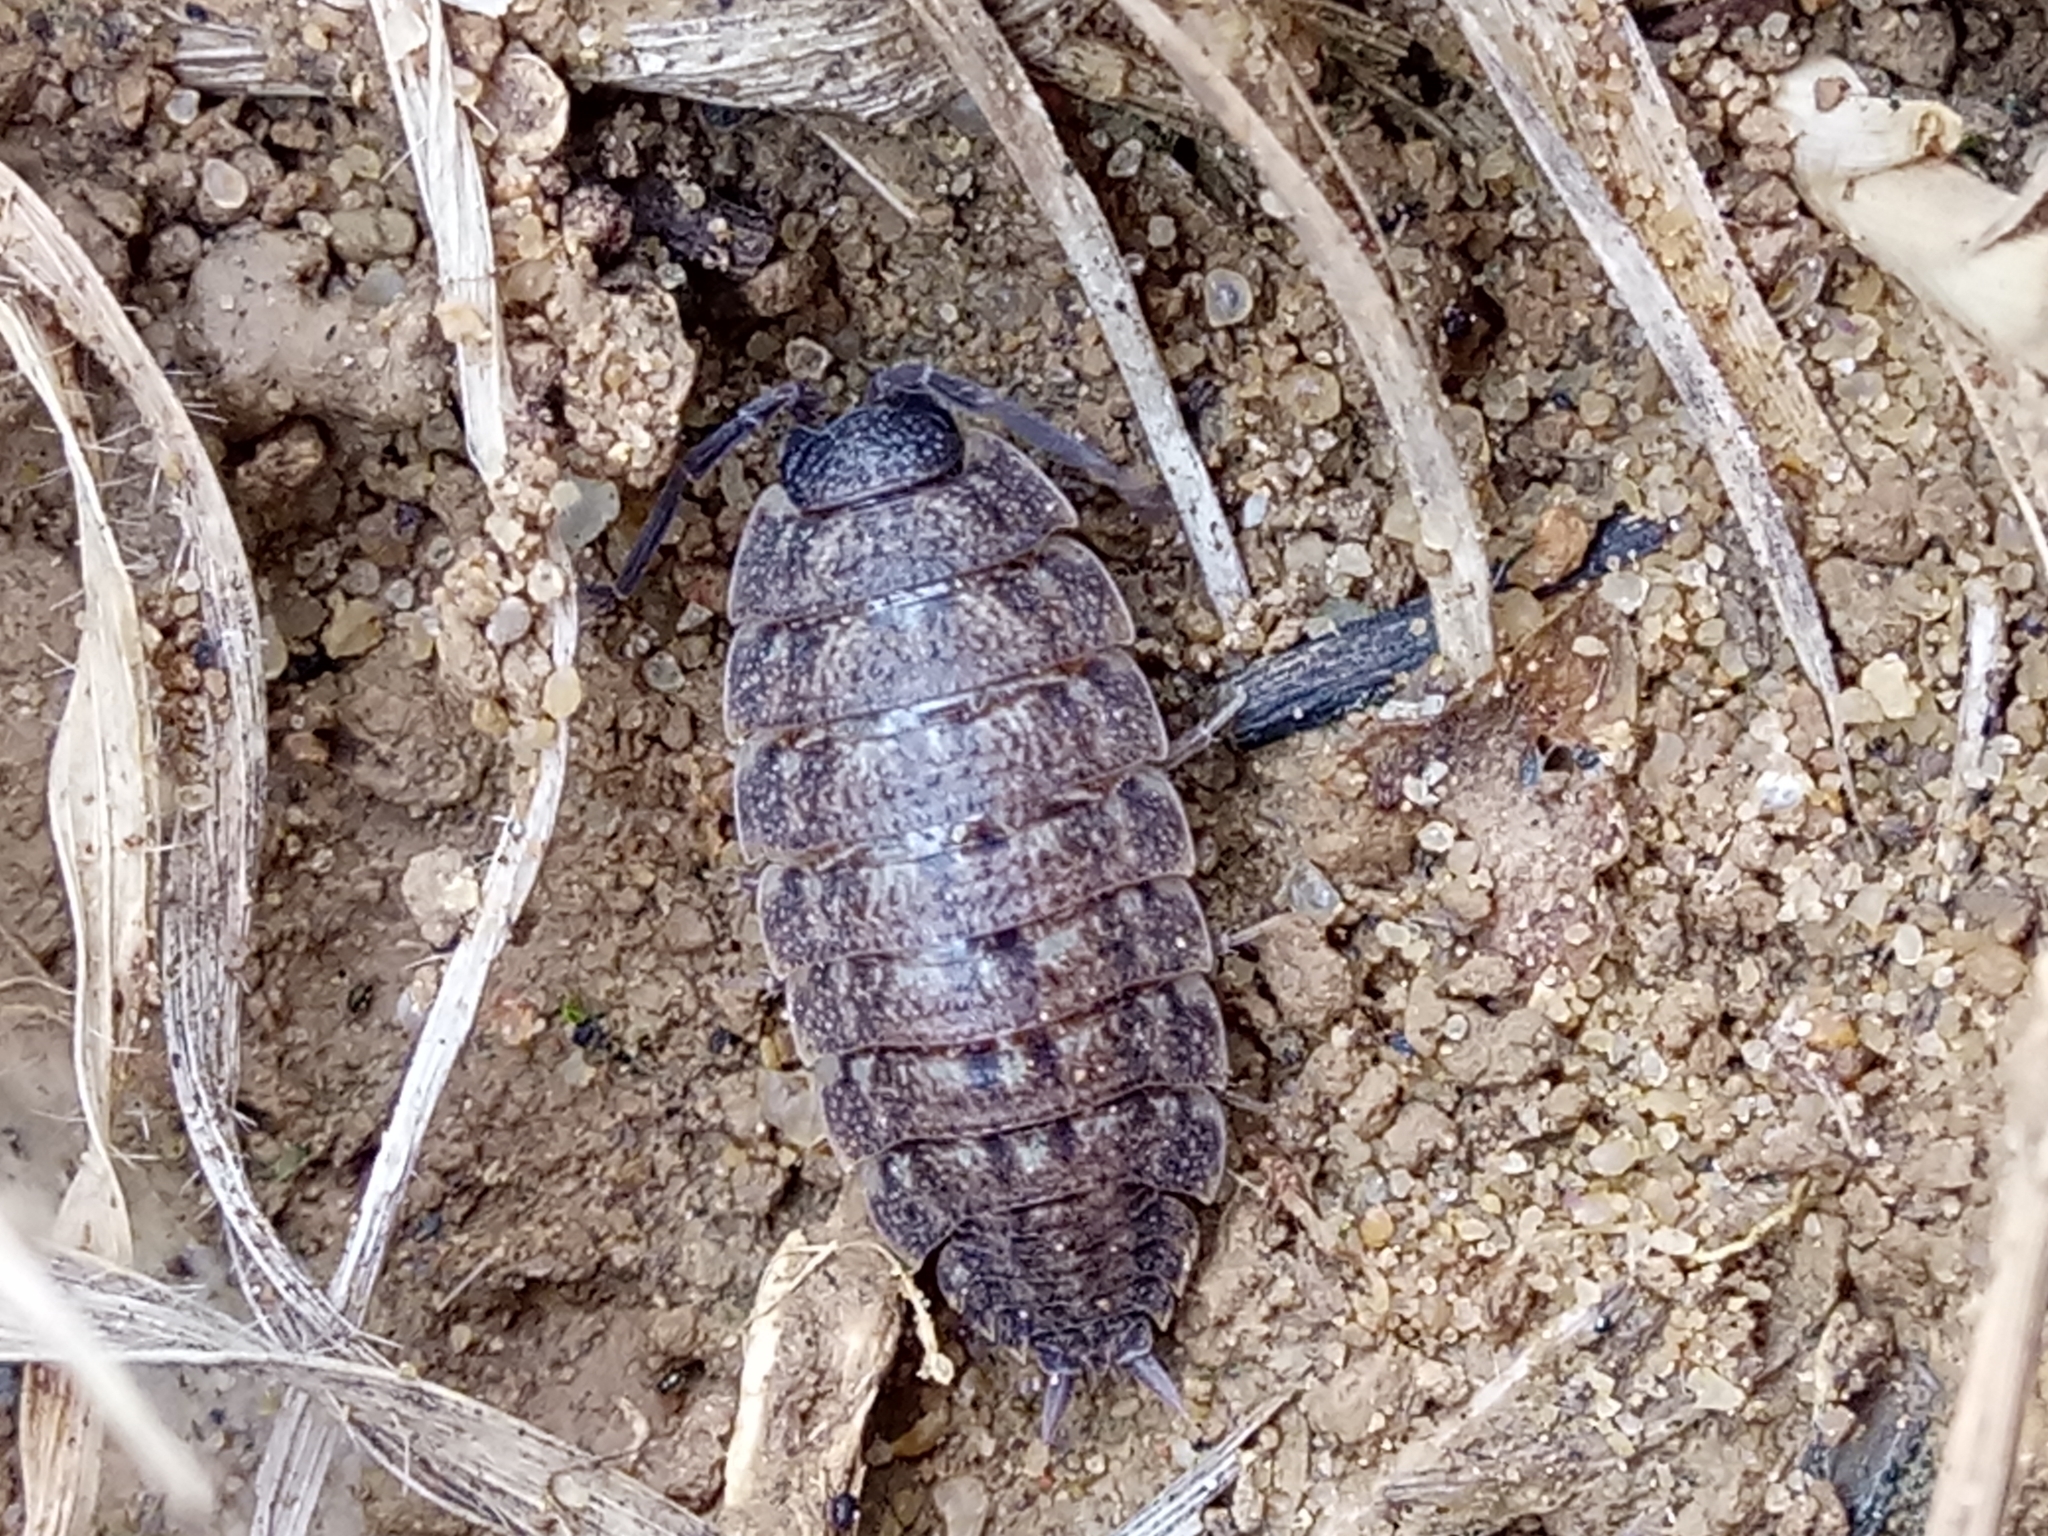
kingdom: Animalia
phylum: Arthropoda
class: Malacostraca
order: Isopoda
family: Porcellionidae
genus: Porcellio
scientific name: Porcellio variabilis
